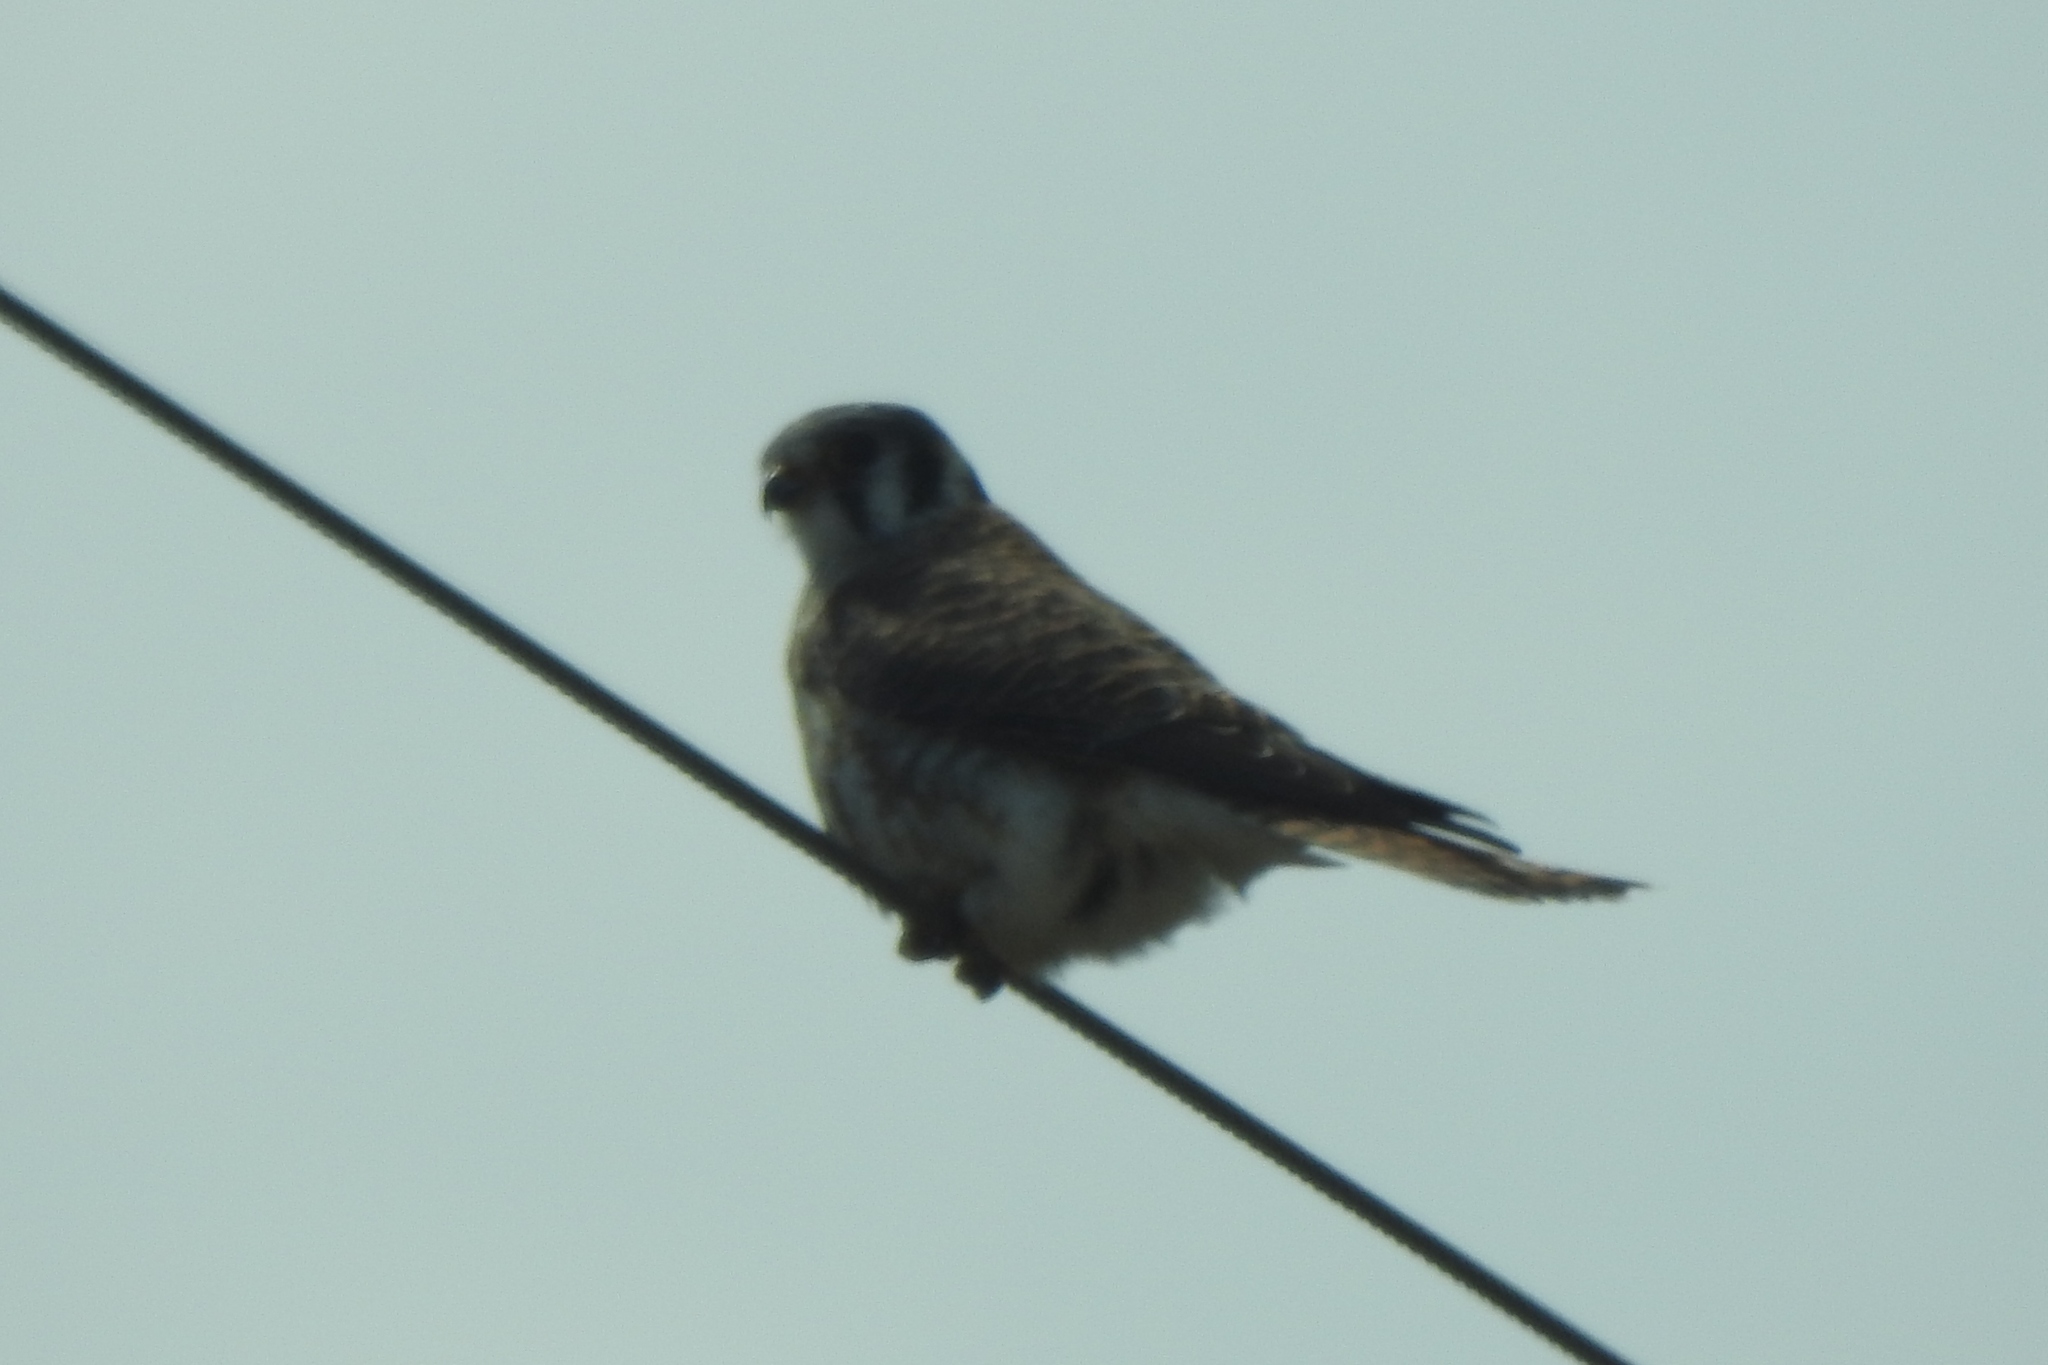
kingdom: Animalia
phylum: Chordata
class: Aves
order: Falconiformes
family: Falconidae
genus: Falco
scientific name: Falco sparverius
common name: American kestrel
